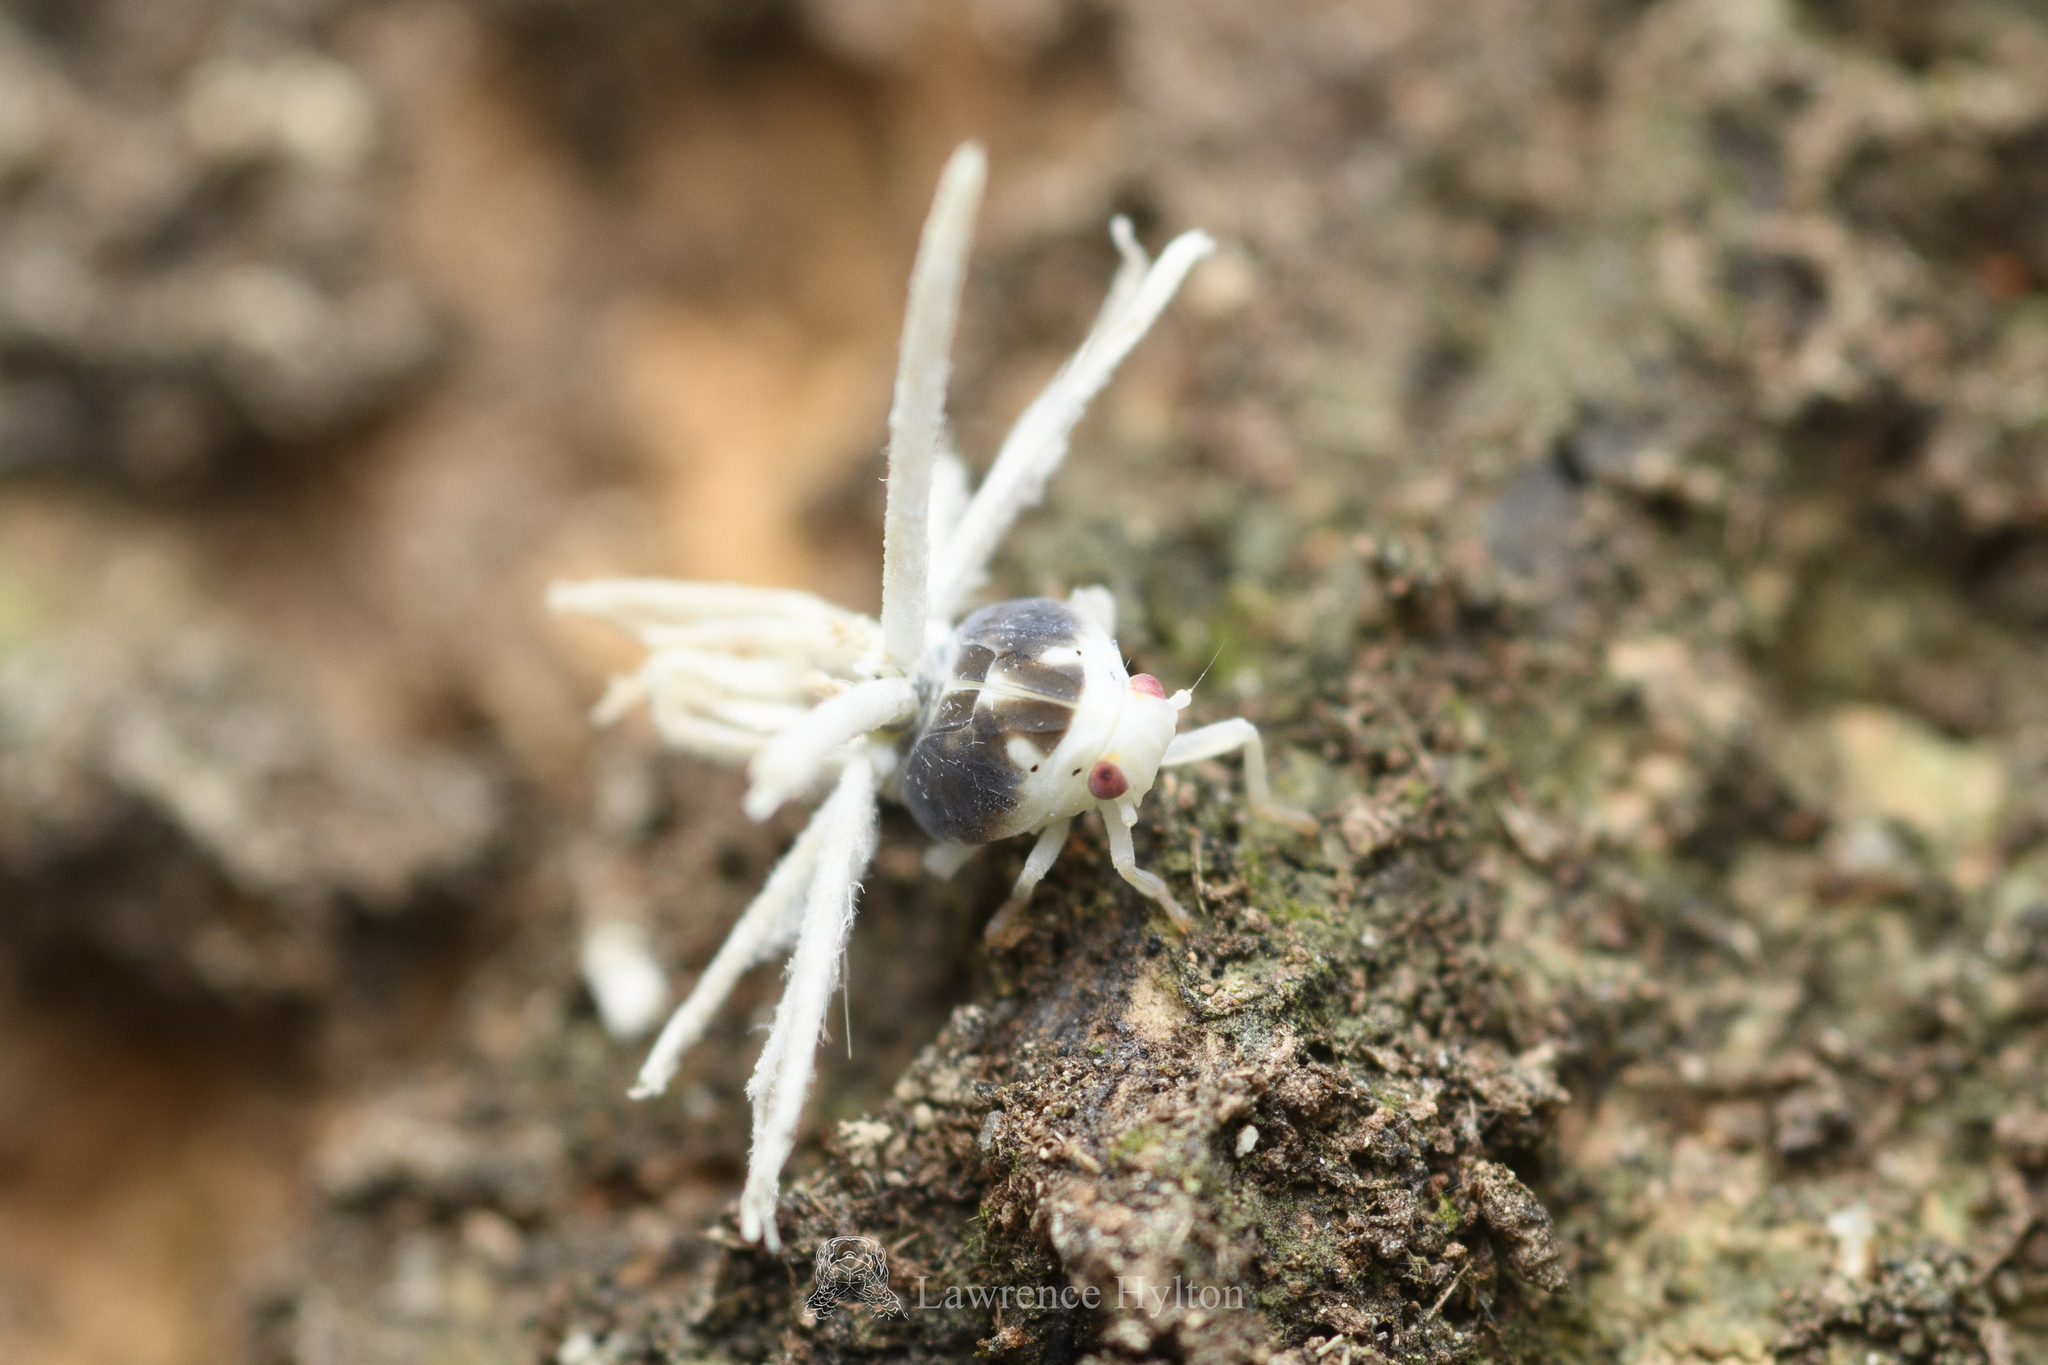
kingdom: Animalia
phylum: Arthropoda
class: Insecta
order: Hemiptera
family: Ricaniidae
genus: Ricania
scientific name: Ricania guttata
